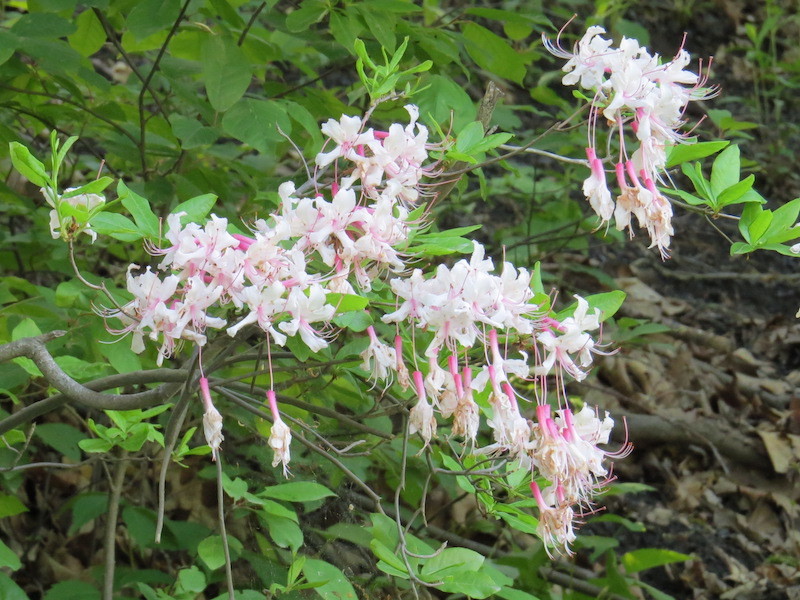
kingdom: Plantae
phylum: Tracheophyta
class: Magnoliopsida
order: Ericales
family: Ericaceae
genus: Rhododendron
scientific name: Rhododendron periclymenoides
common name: Election-pink
